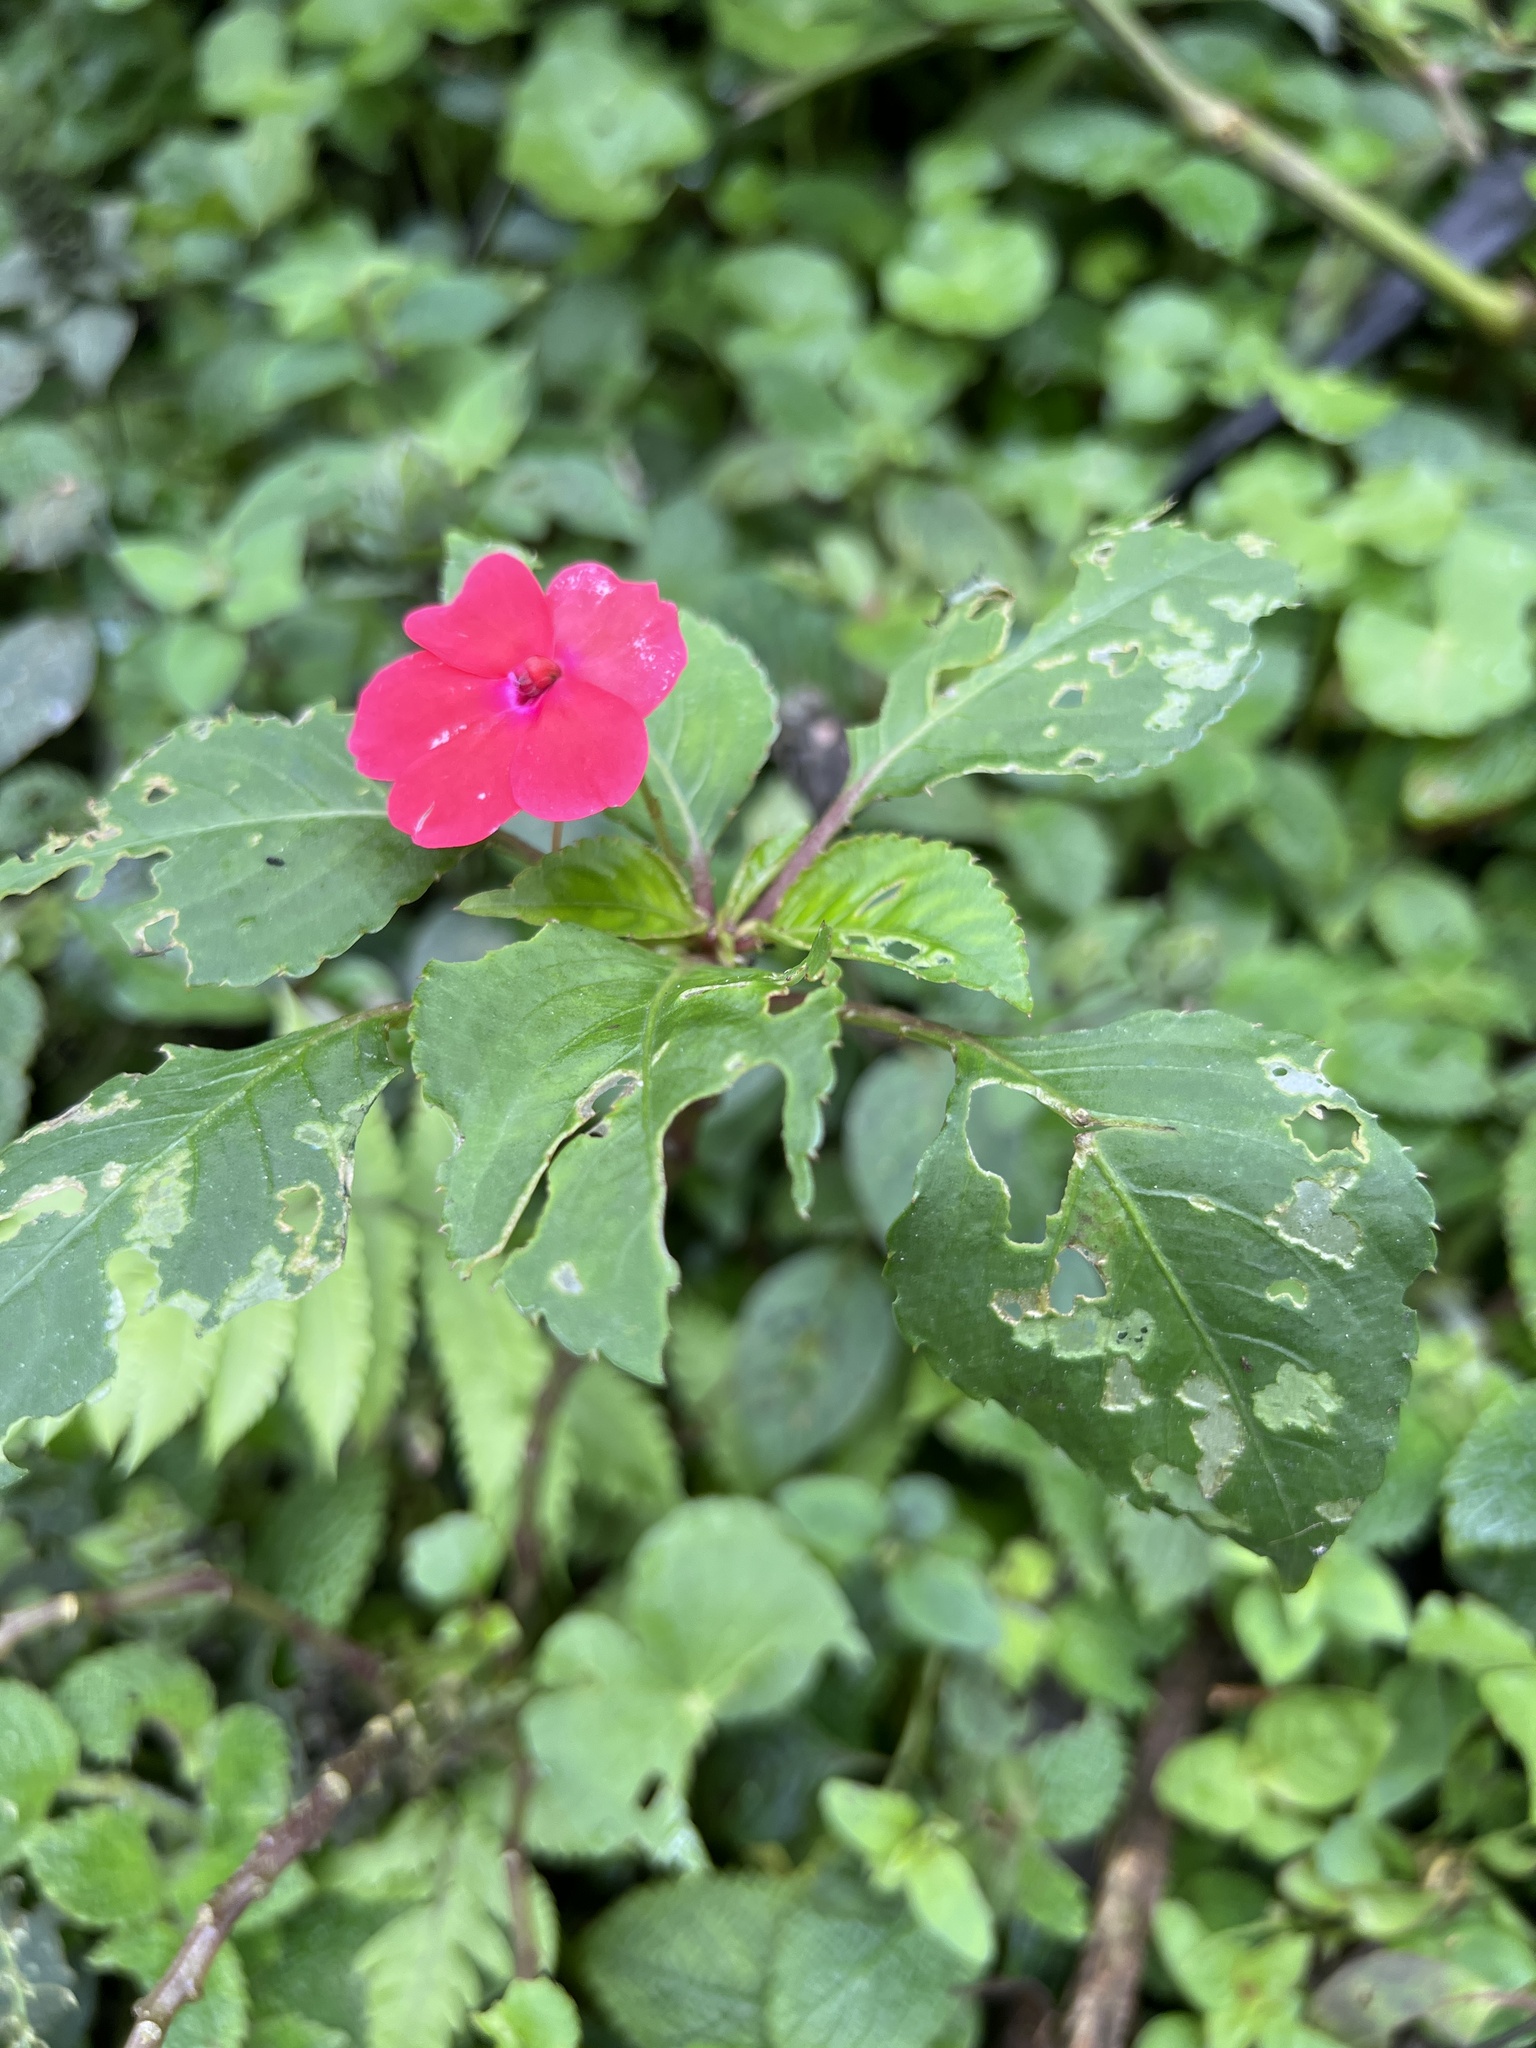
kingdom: Plantae
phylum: Tracheophyta
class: Magnoliopsida
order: Ericales
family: Balsaminaceae
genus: Impatiens
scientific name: Impatiens walleriana
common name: Buzzy lizzy
